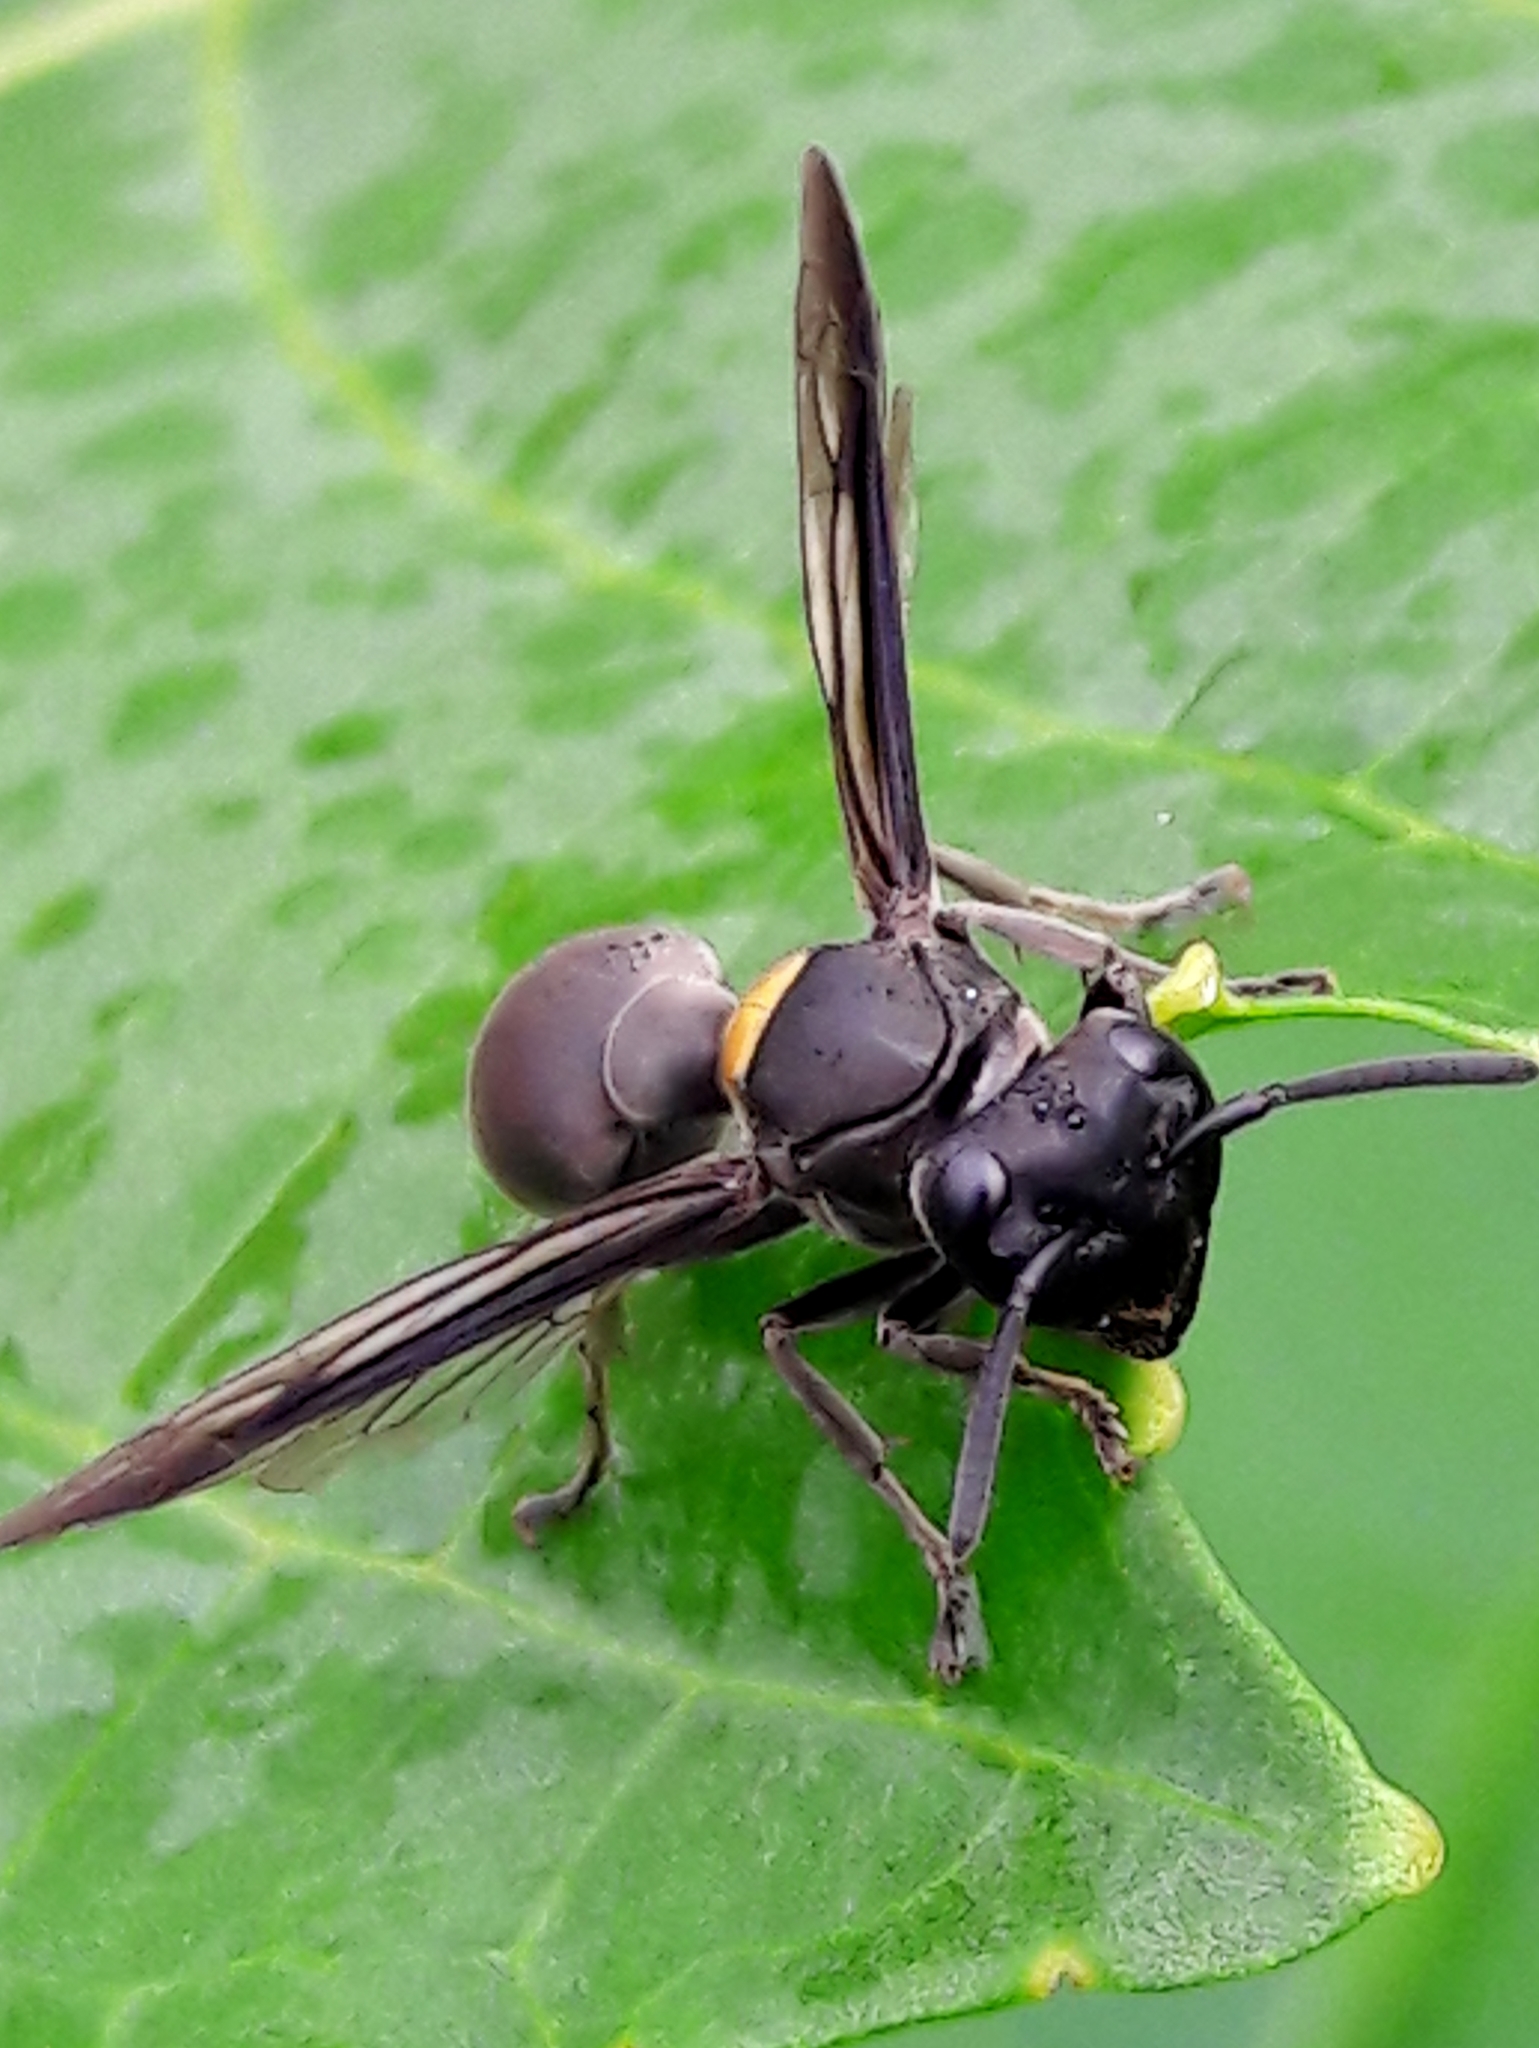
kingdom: Animalia
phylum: Arthropoda
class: Insecta
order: Hymenoptera
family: Eumenidae
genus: Polybia
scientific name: Polybia jurinei
